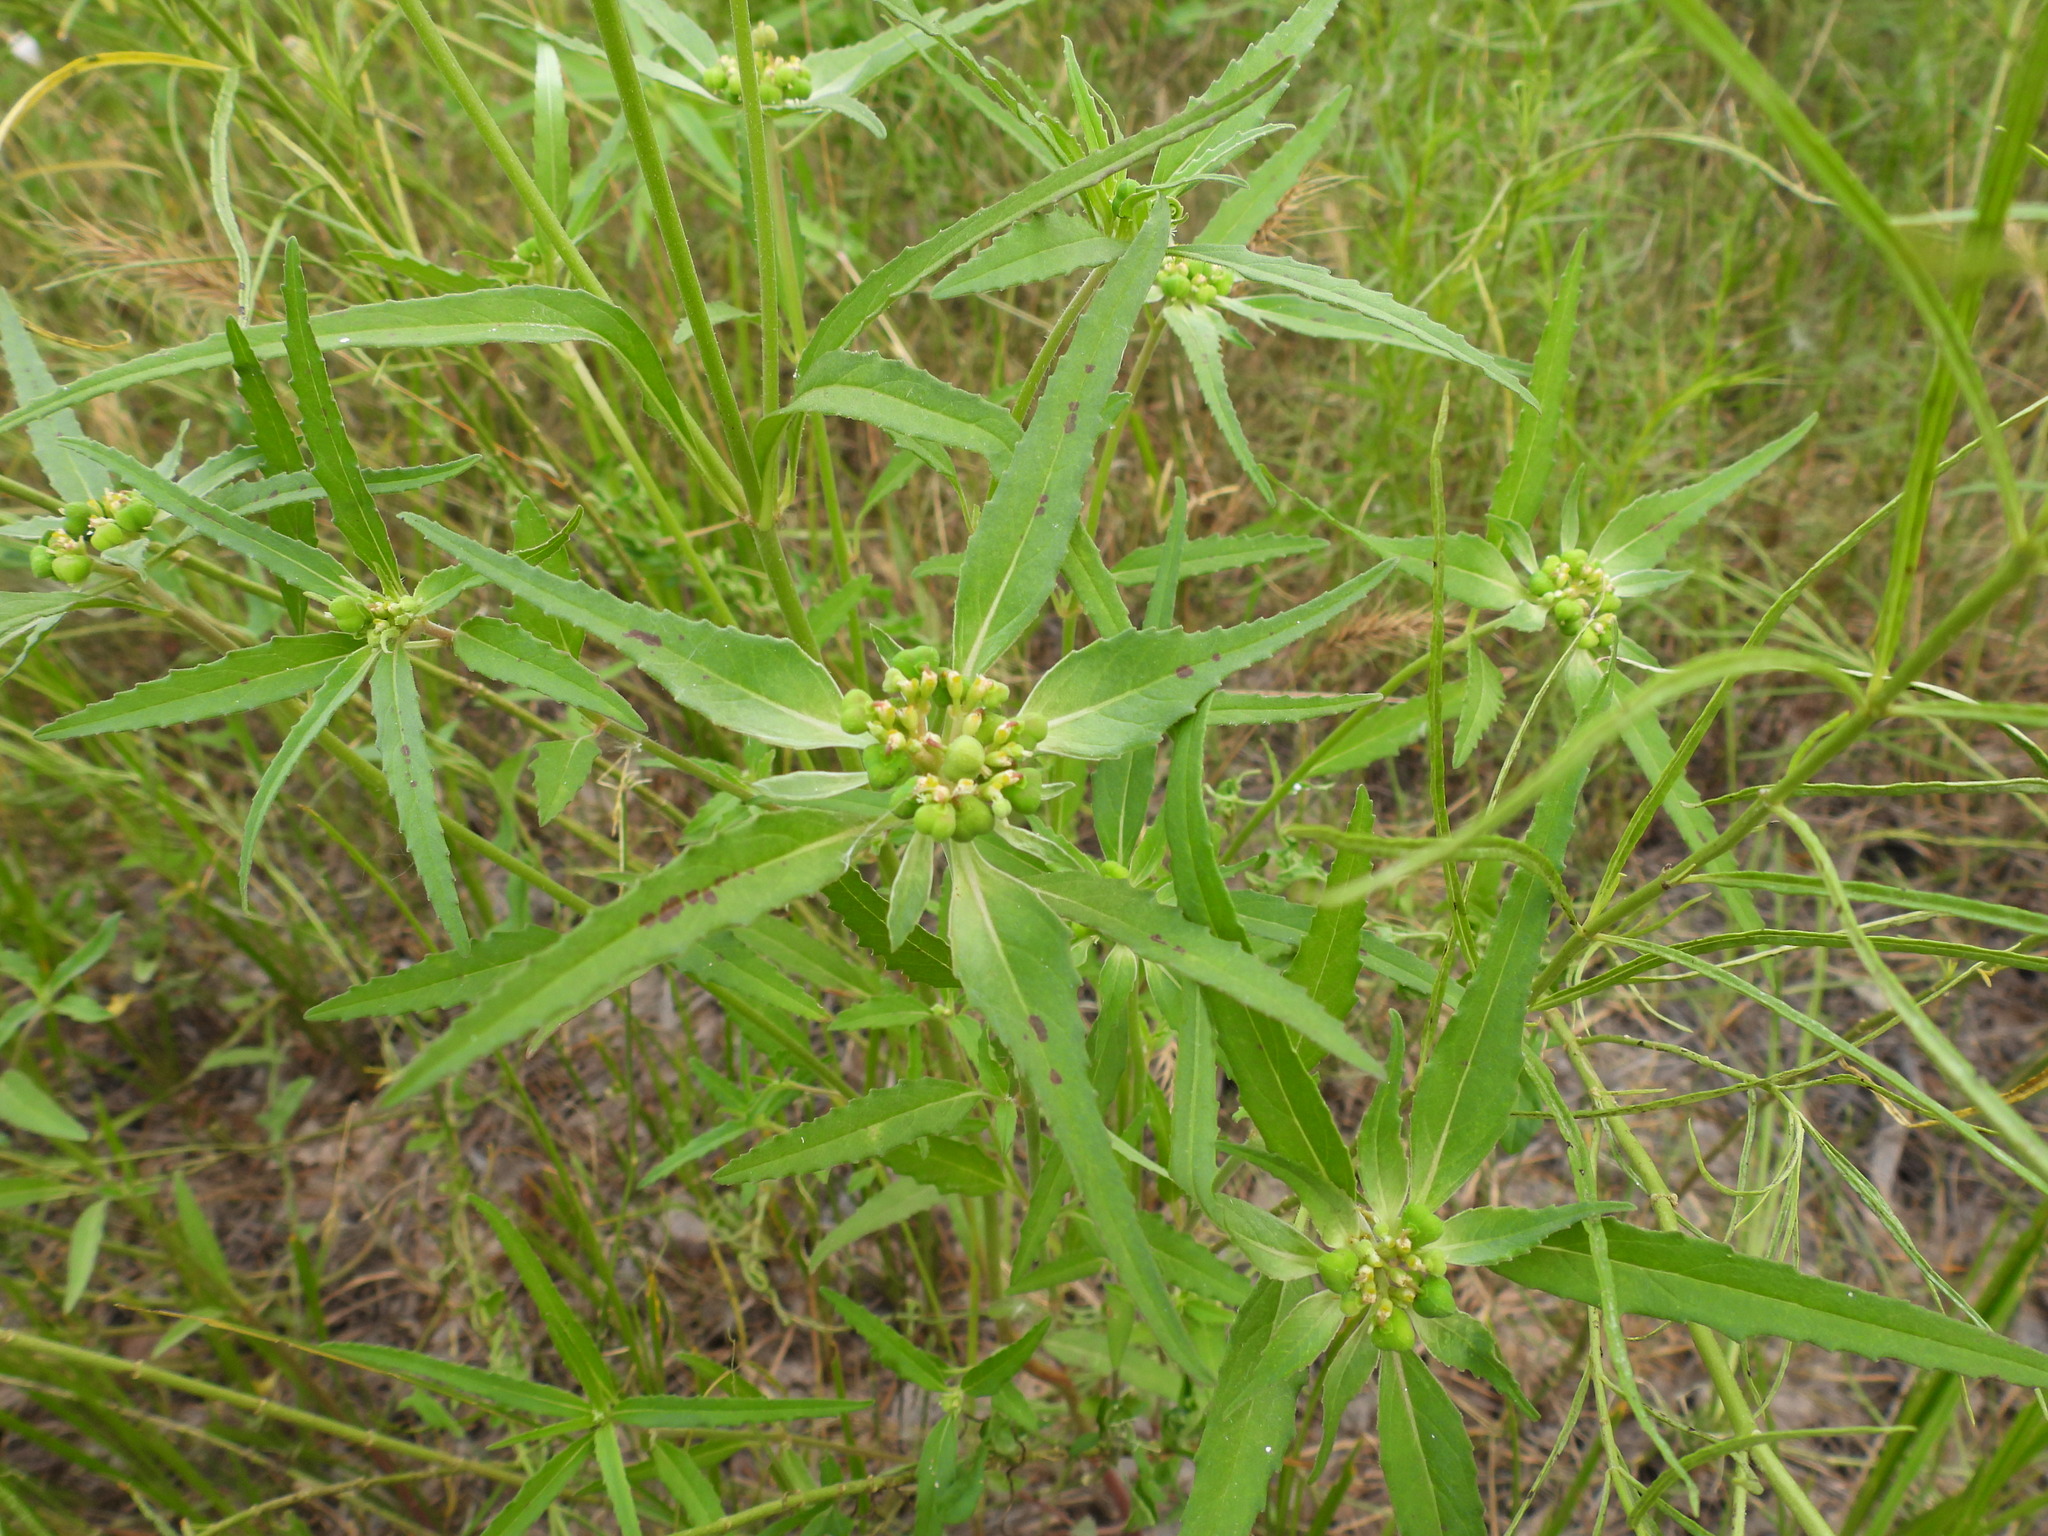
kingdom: Plantae
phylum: Tracheophyta
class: Magnoliopsida
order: Malpighiales
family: Euphorbiaceae
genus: Euphorbia
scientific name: Euphorbia davidii
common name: David's spurge
